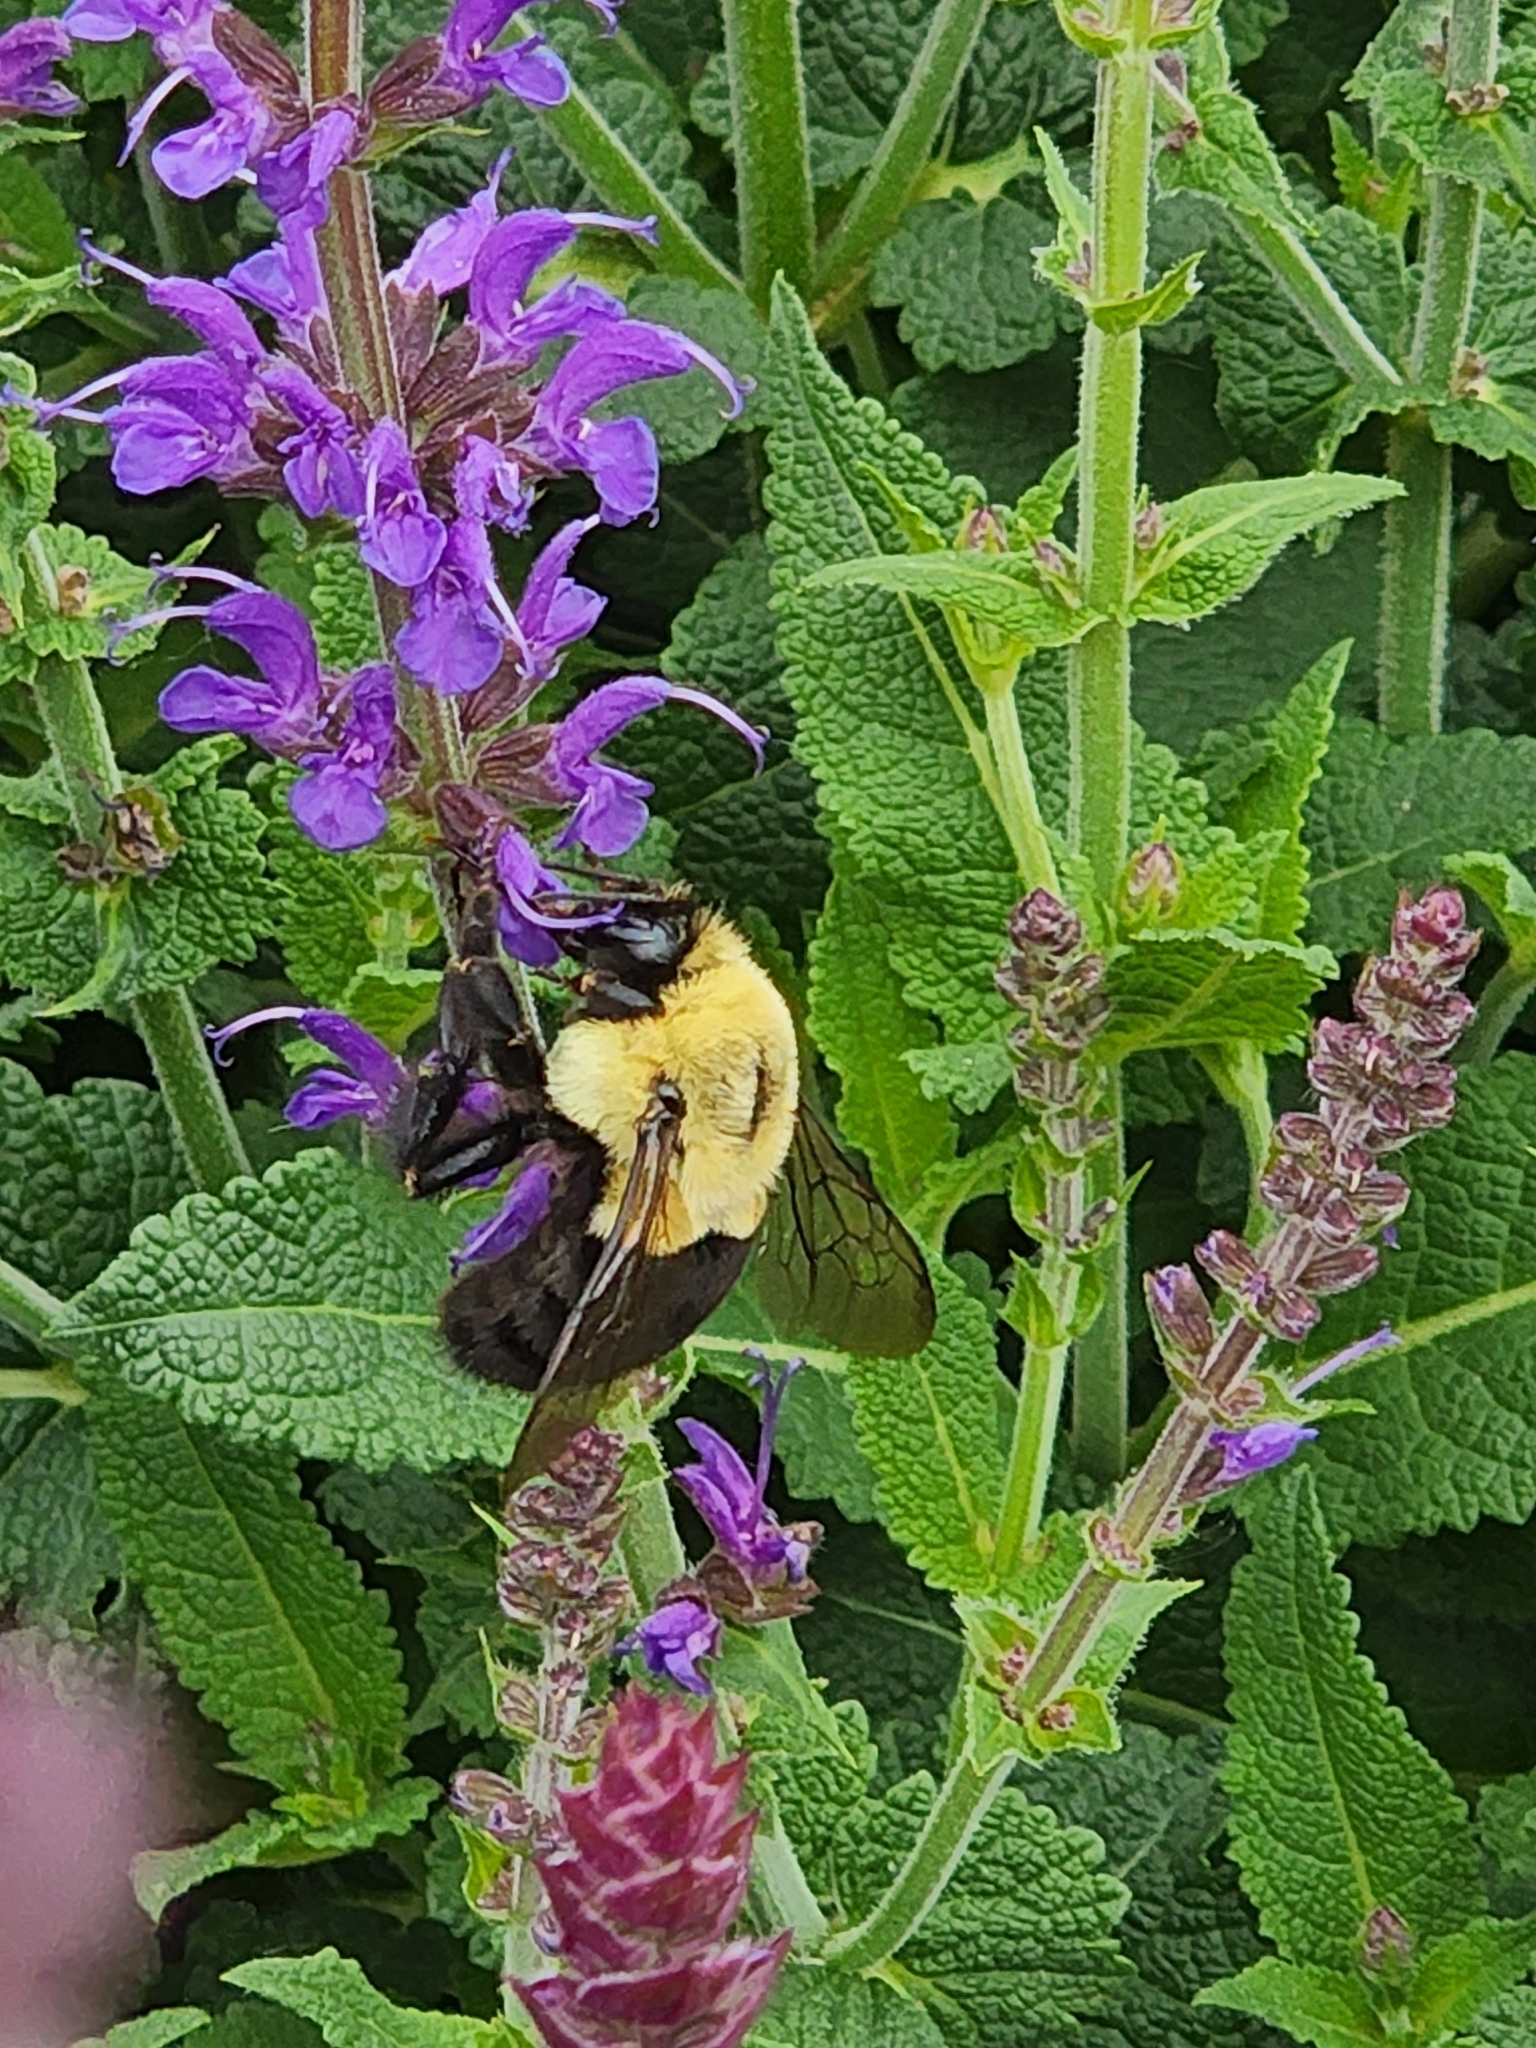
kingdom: Animalia
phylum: Arthropoda
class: Insecta
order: Hymenoptera
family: Apidae
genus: Bombus
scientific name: Bombus impatiens
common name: Common eastern bumble bee
